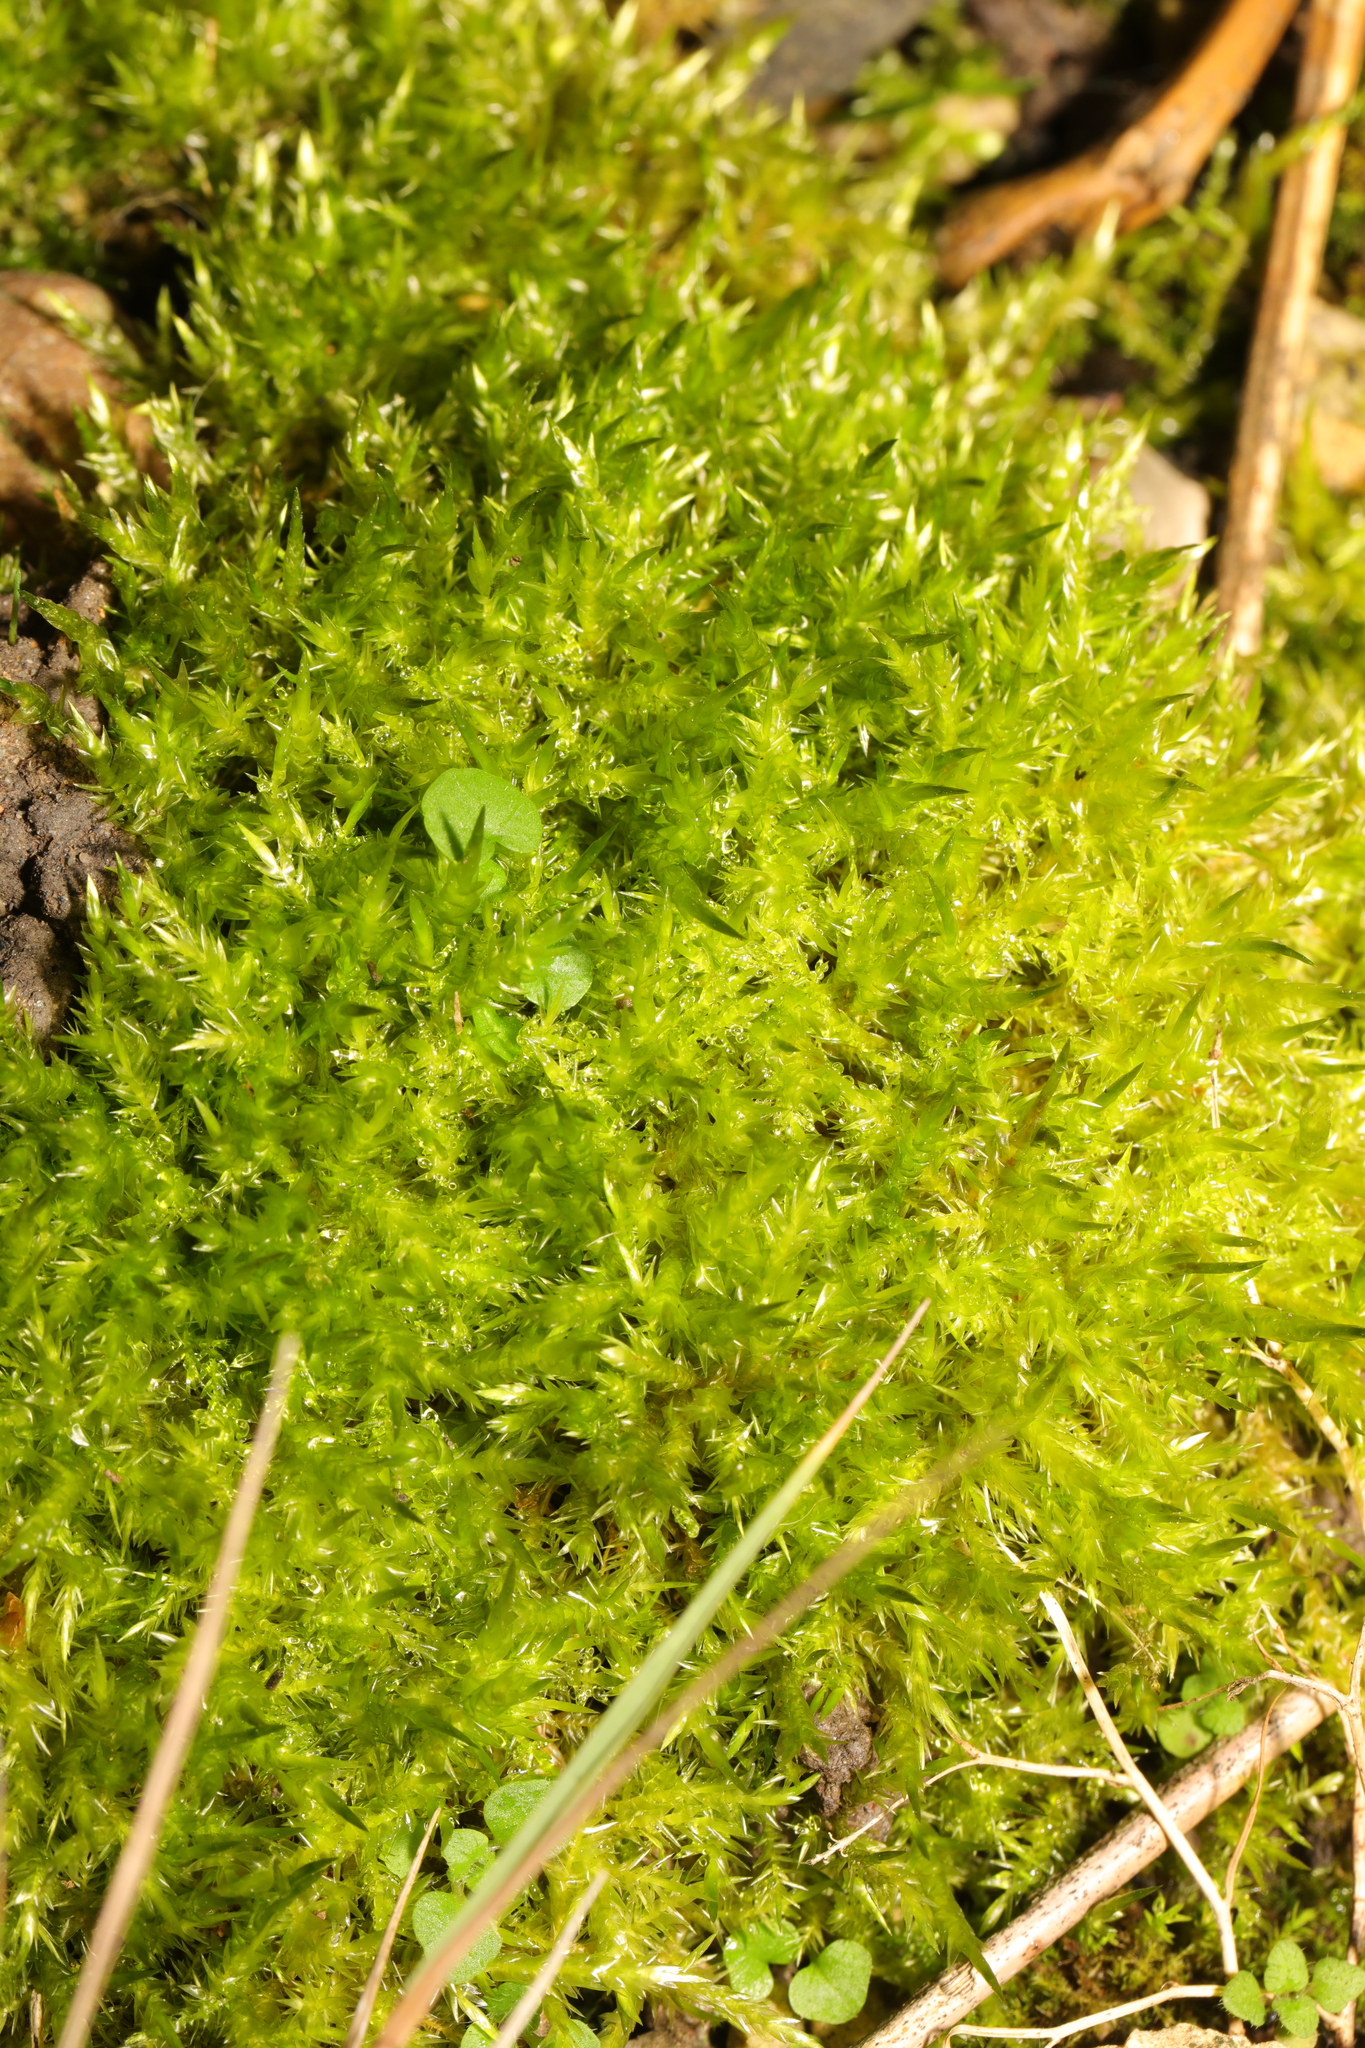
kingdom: Plantae
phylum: Bryophyta
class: Bryopsida
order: Hypnales
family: Pylaisiaceae
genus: Calliergonella
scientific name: Calliergonella cuspidata
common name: Common large wetland moss
